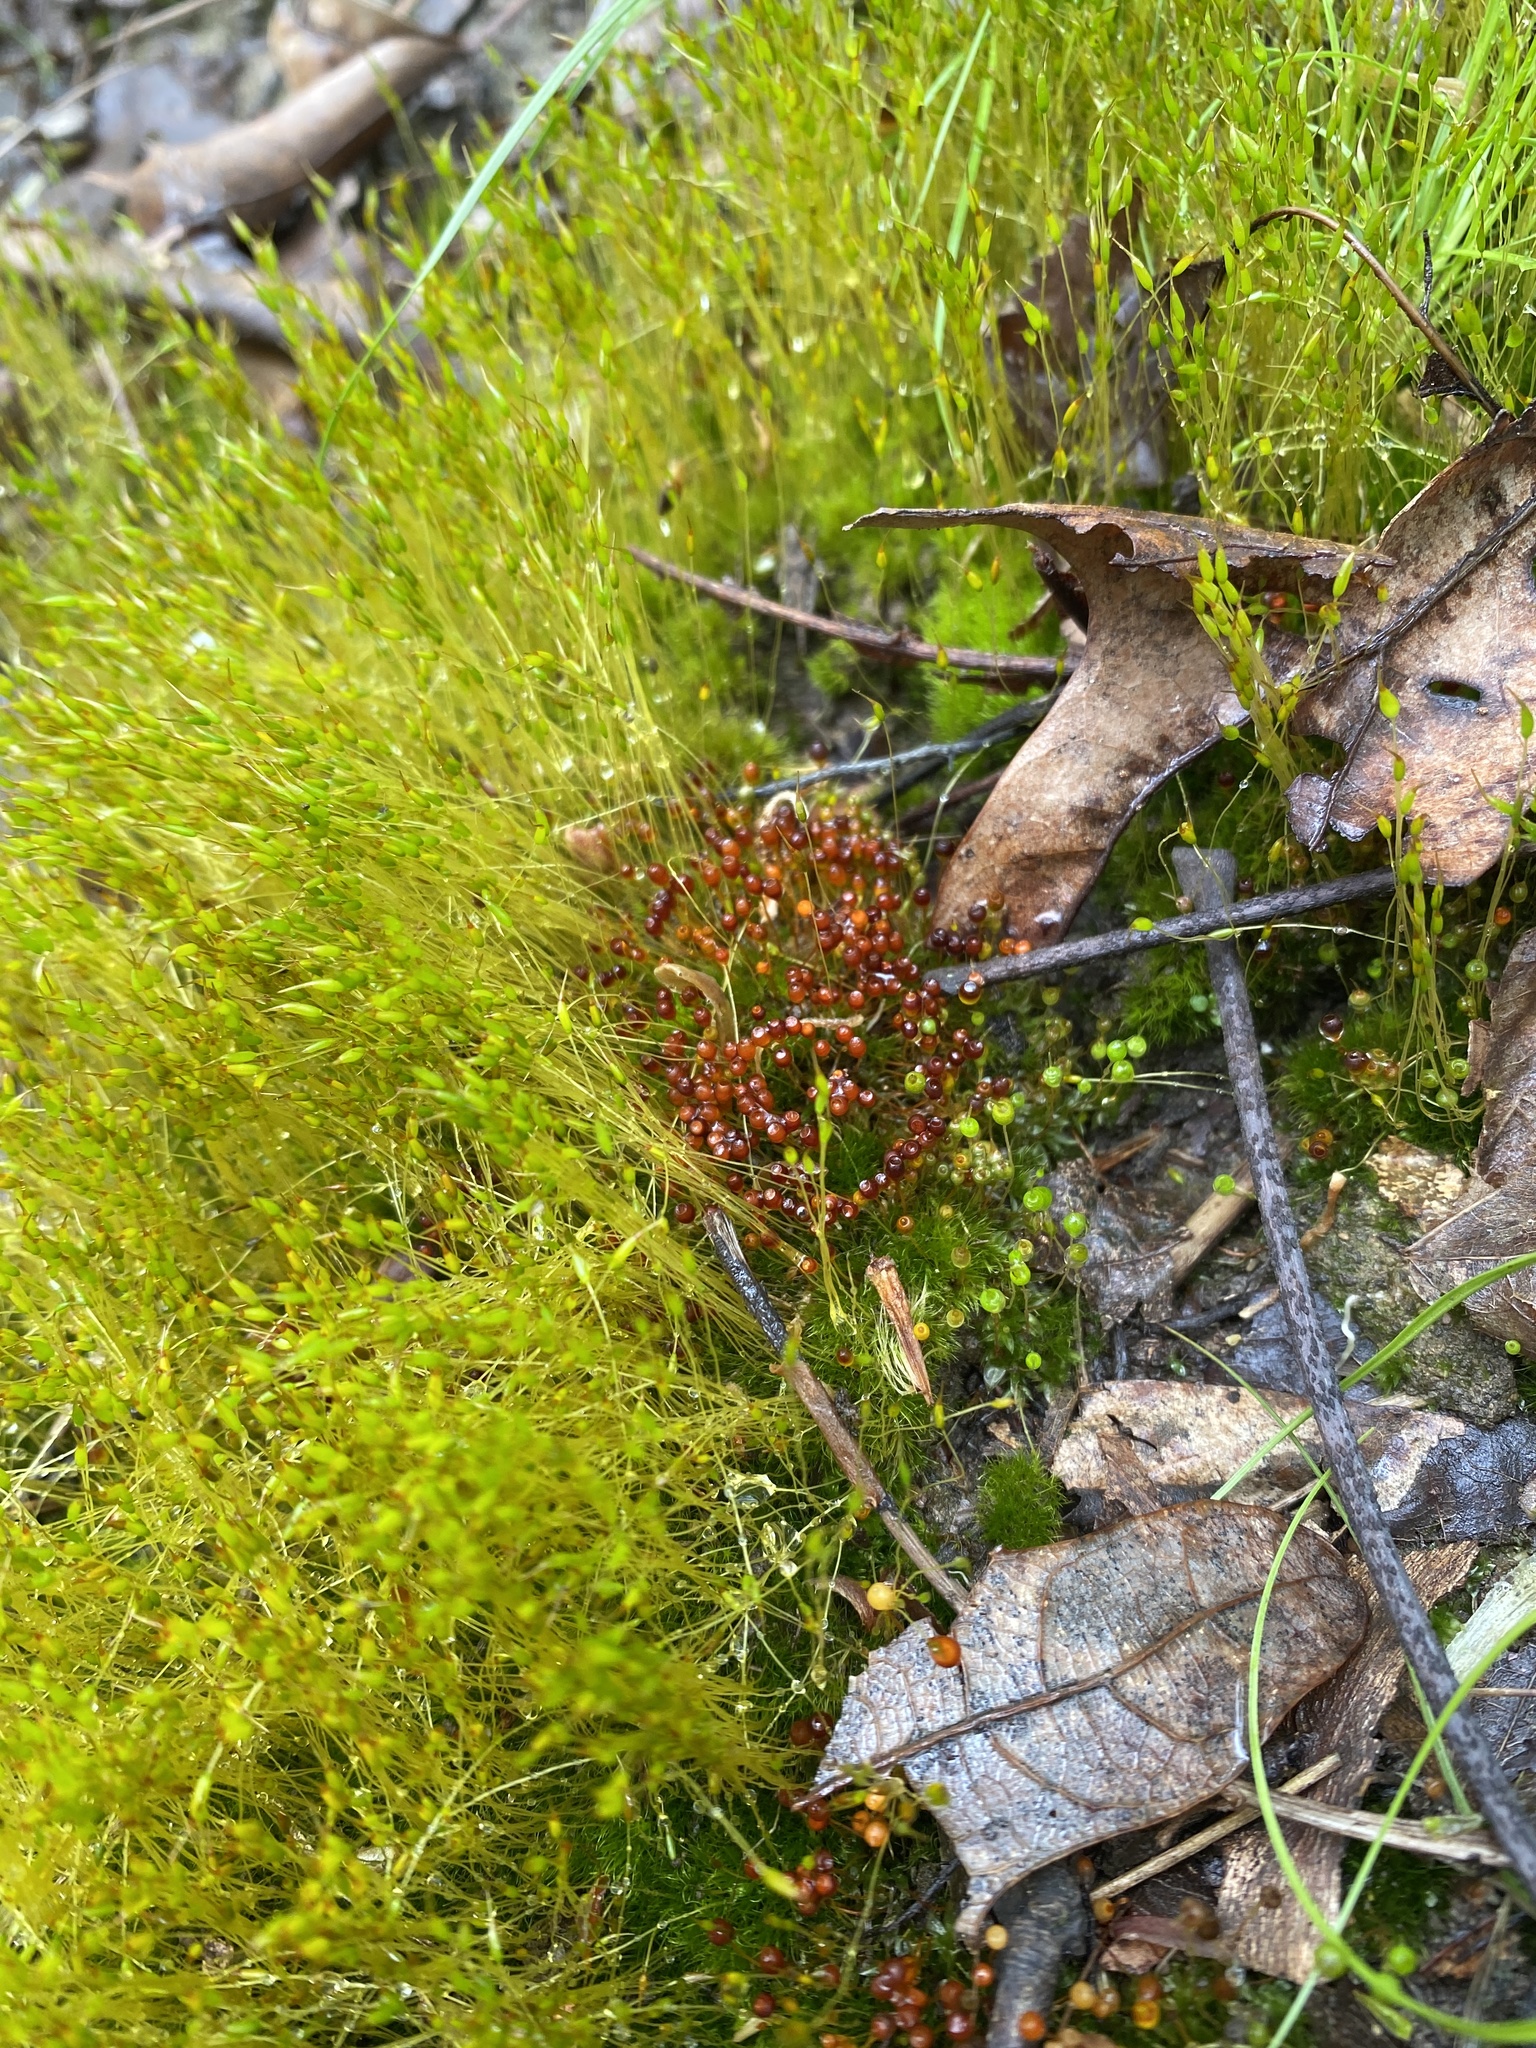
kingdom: Plantae
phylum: Bryophyta
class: Bryopsida
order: Funariales
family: Funariaceae
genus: Physcomitrium
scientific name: Physcomitrium pyriforme
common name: Common bladder-moss
